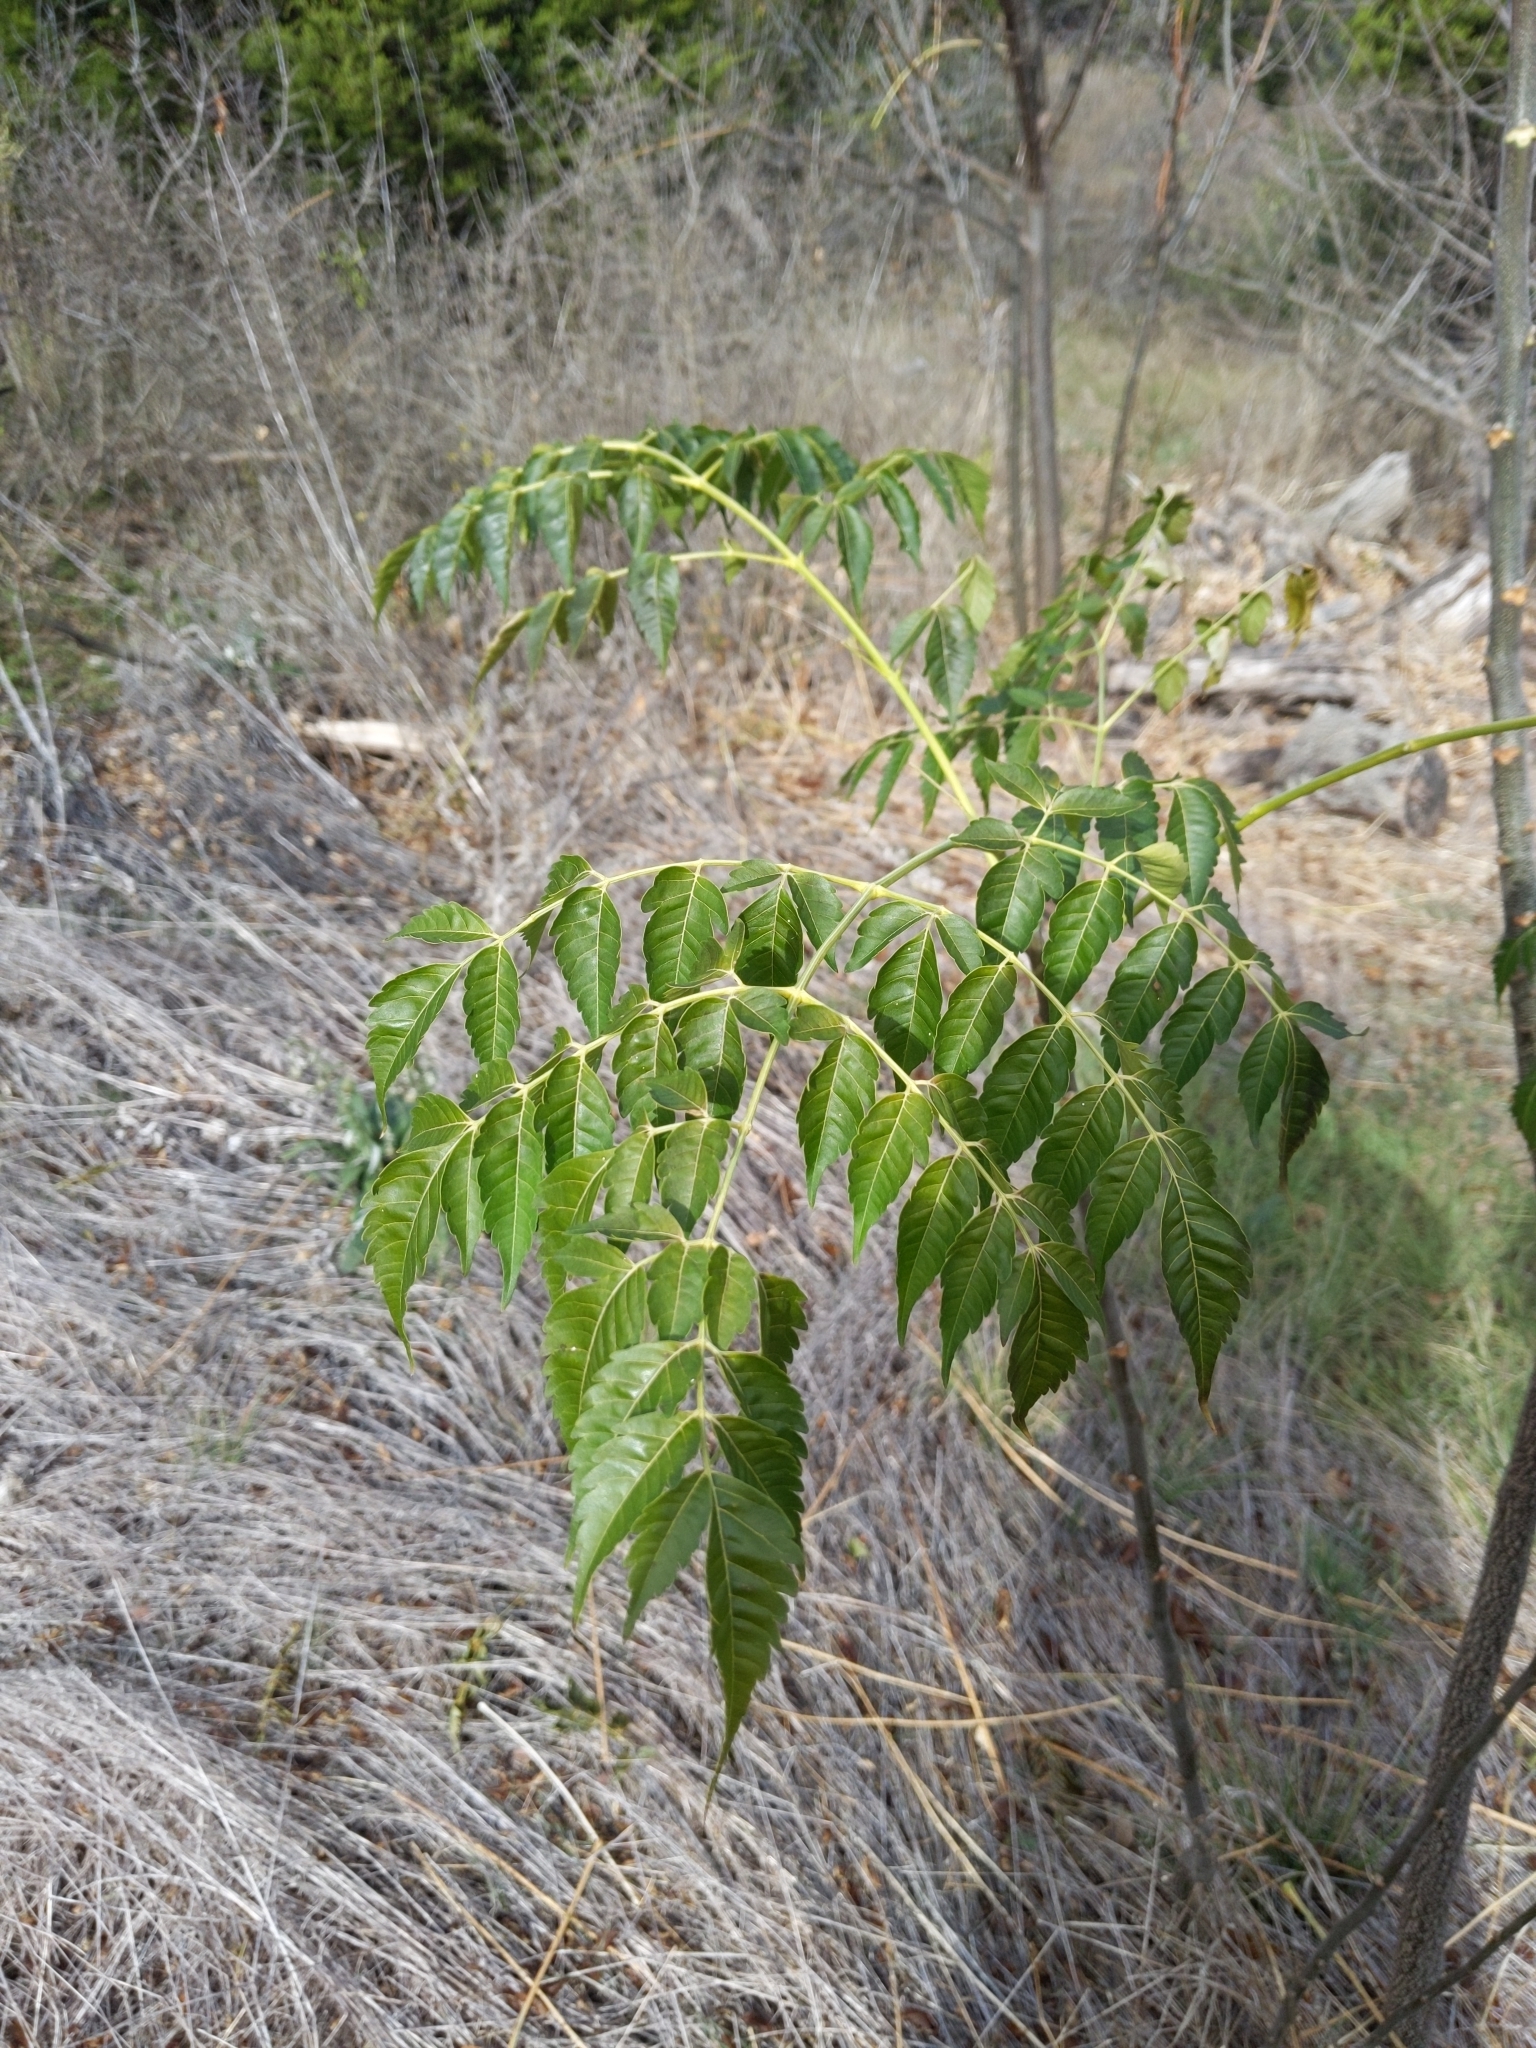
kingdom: Plantae
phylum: Tracheophyta
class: Magnoliopsida
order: Sapindales
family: Meliaceae
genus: Melia
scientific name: Melia azedarach
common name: Chinaberrytree
